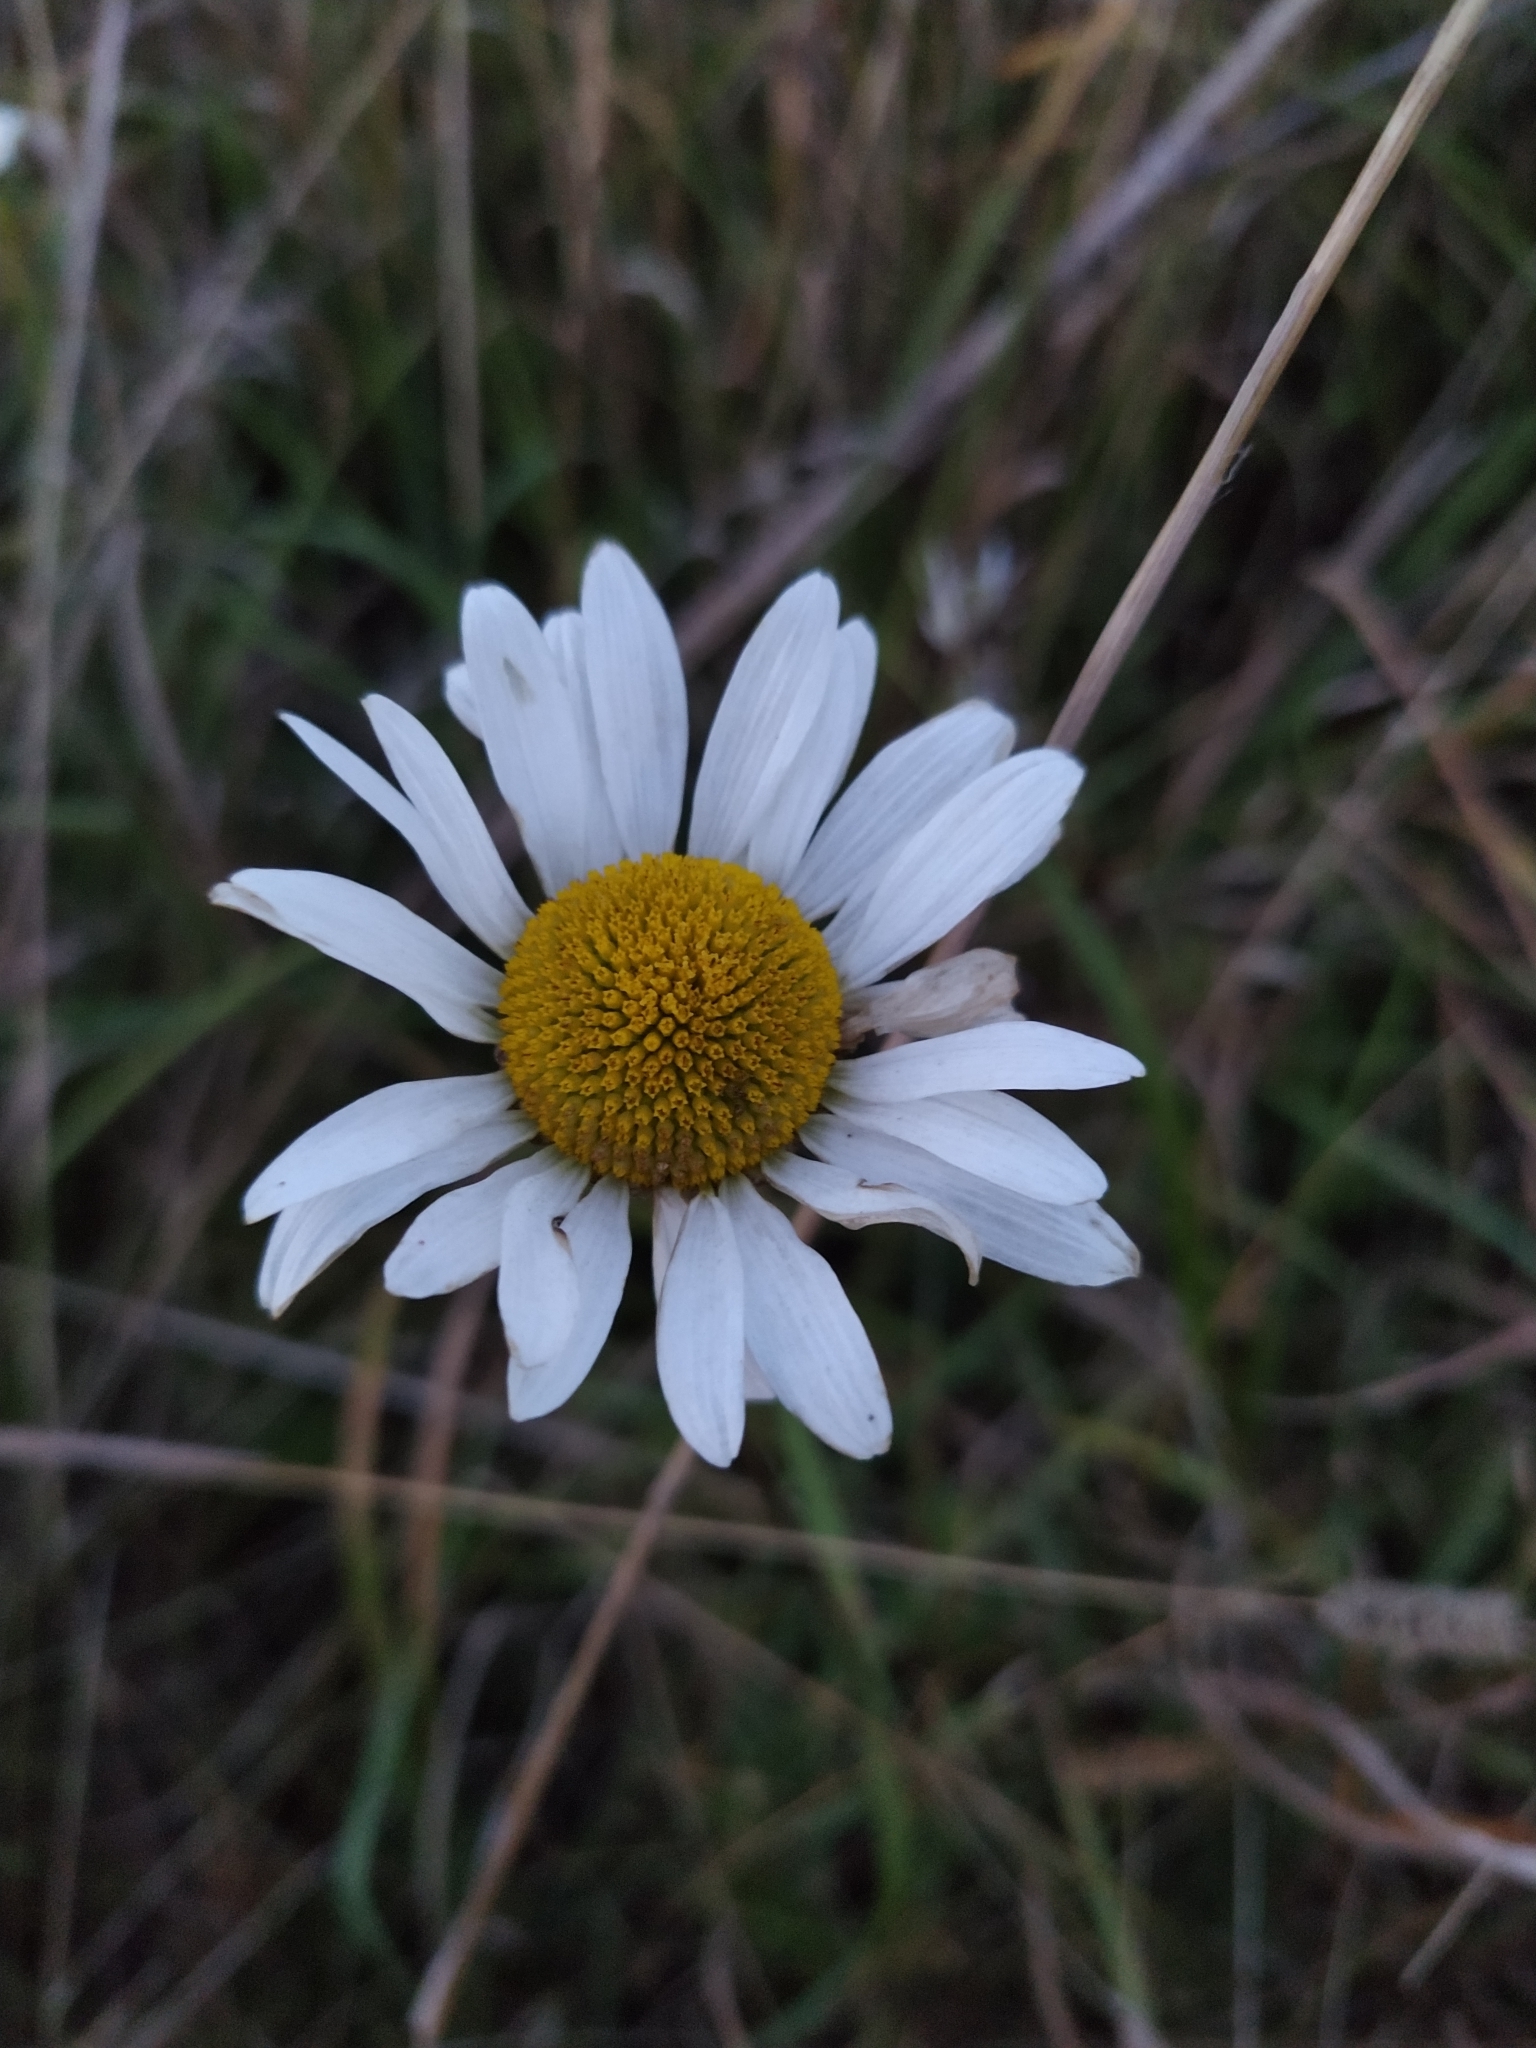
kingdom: Plantae
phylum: Tracheophyta
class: Magnoliopsida
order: Asterales
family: Asteraceae
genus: Leucanthemum
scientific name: Leucanthemum vulgare
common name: Oxeye daisy
